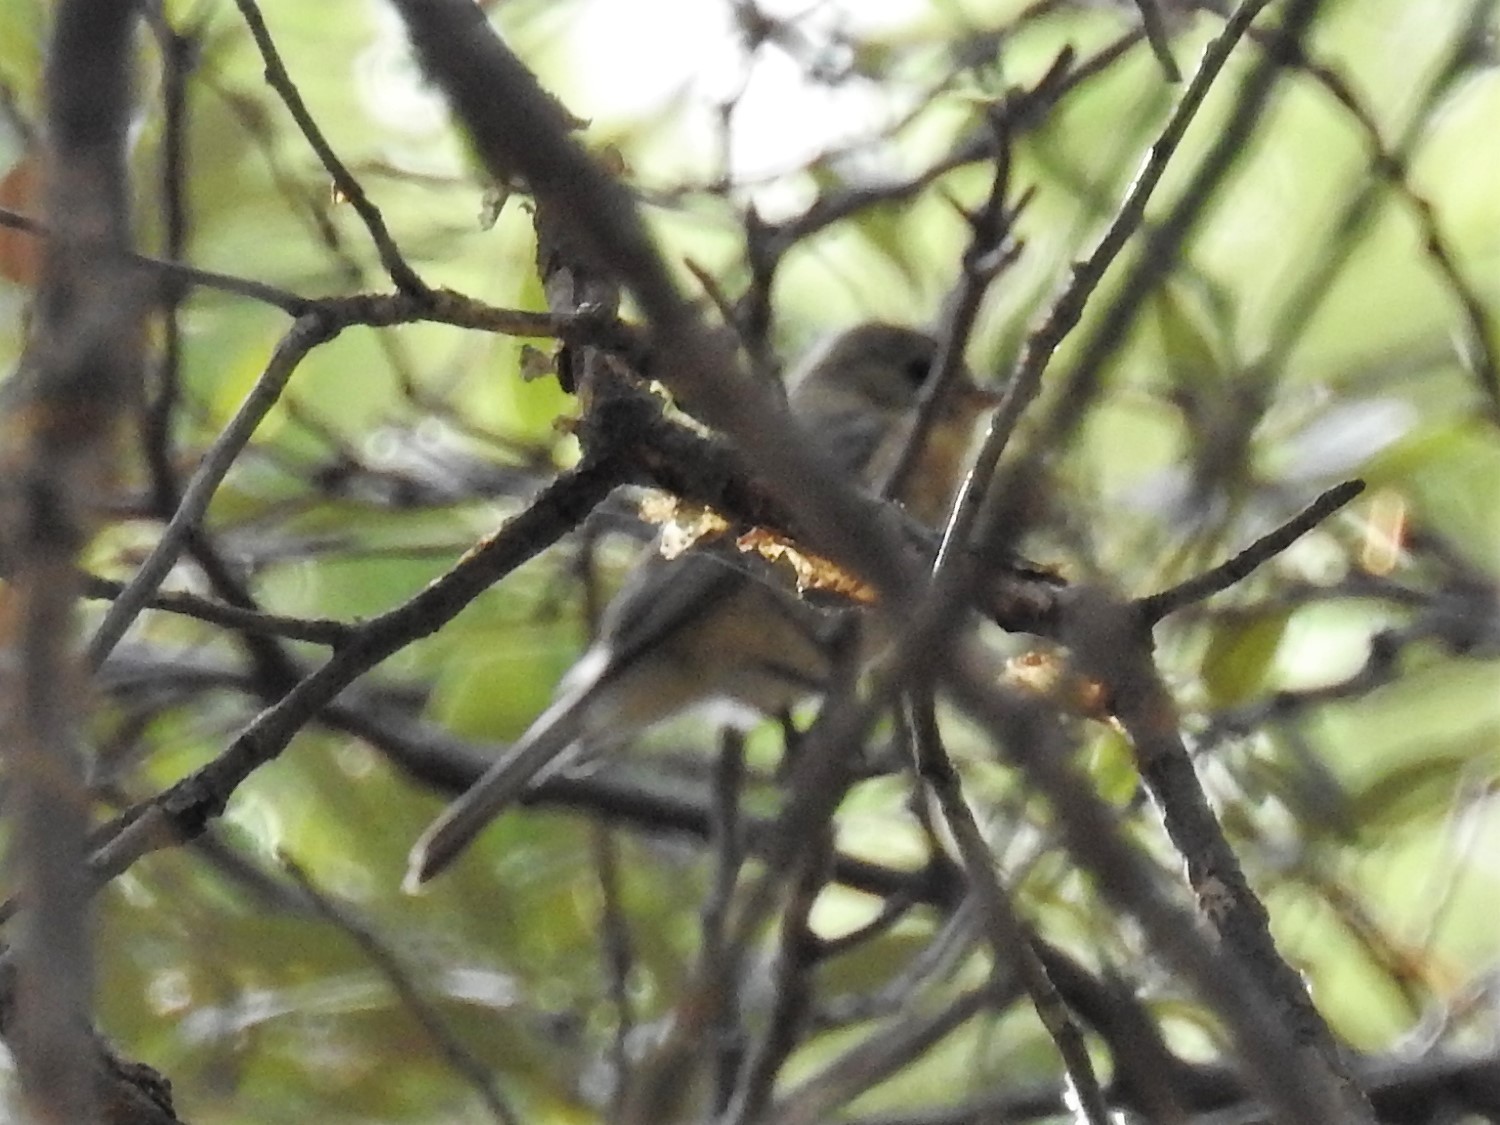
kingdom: Animalia
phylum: Chordata
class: Aves
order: Passeriformes
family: Tyrannidae
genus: Empidonax
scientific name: Empidonax fulvifrons
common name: Buff-breasted flycatcher
